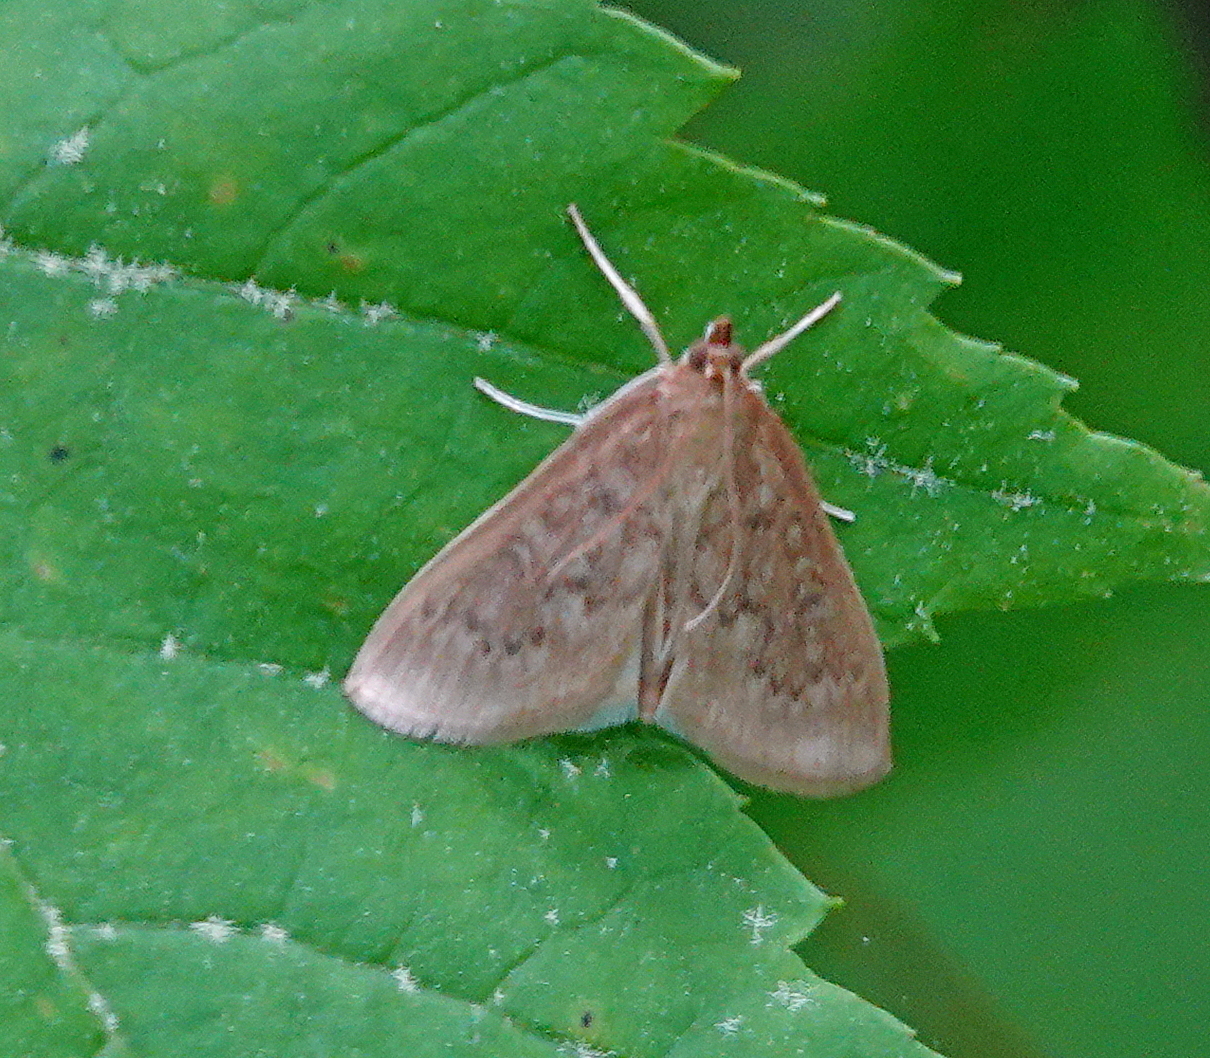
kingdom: Animalia
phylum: Arthropoda
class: Insecta
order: Lepidoptera
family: Crambidae
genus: Anania
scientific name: Anania Framinghamia helvalis
